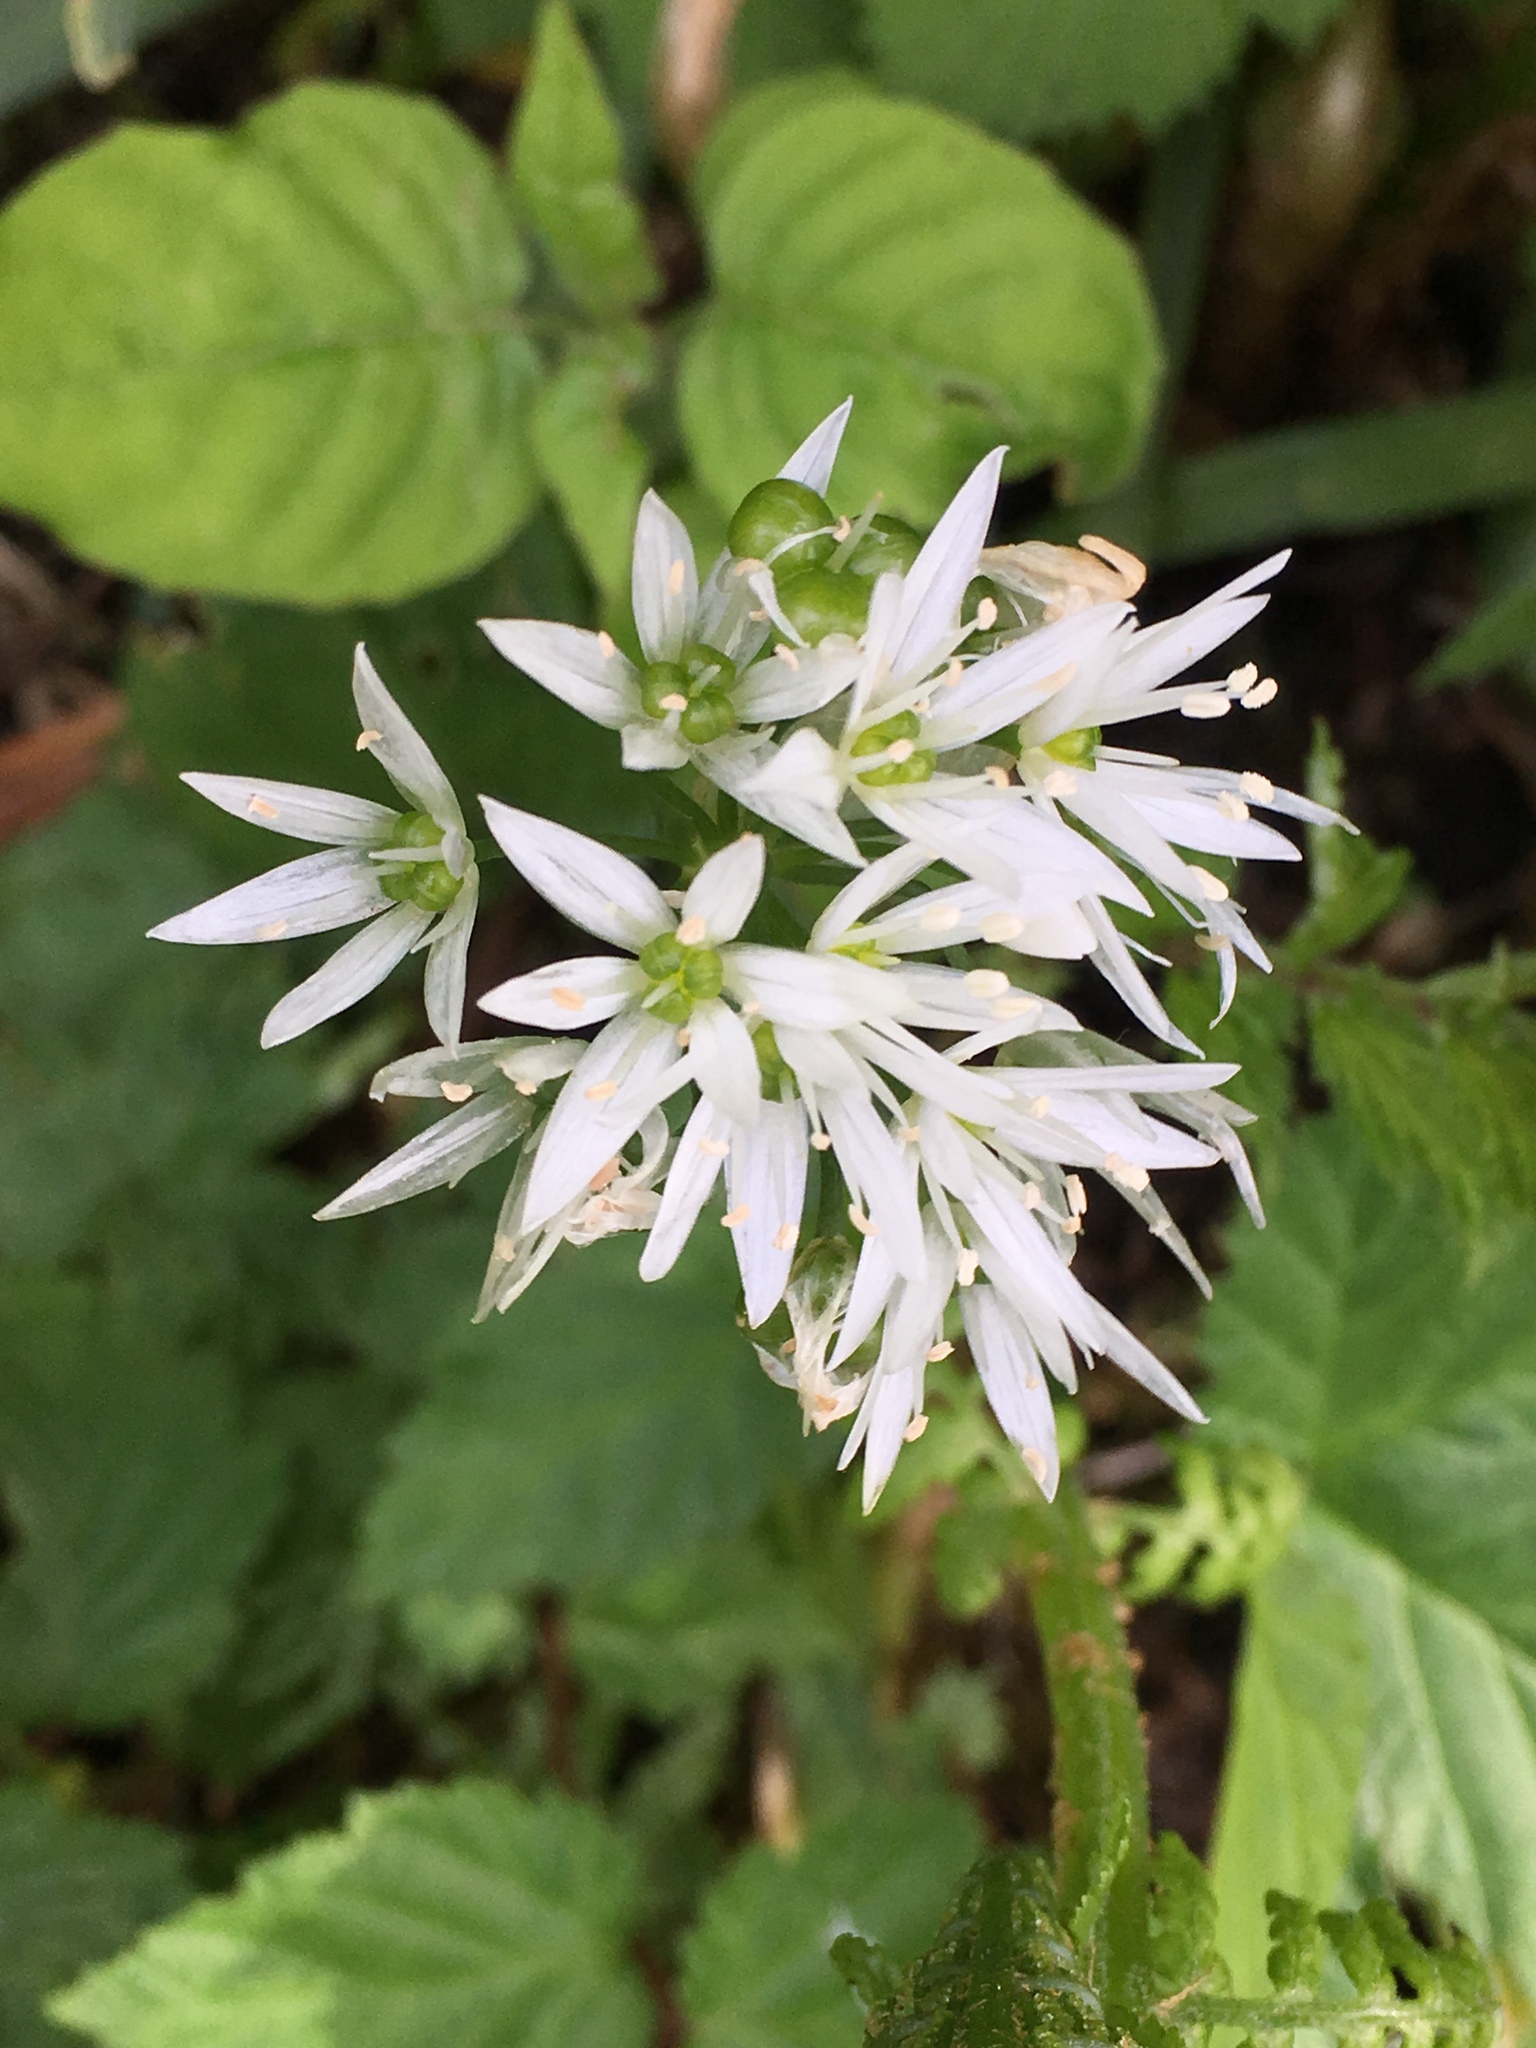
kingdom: Plantae
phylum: Tracheophyta
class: Liliopsida
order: Asparagales
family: Amaryllidaceae
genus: Allium
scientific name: Allium ursinum
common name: Ramsons
